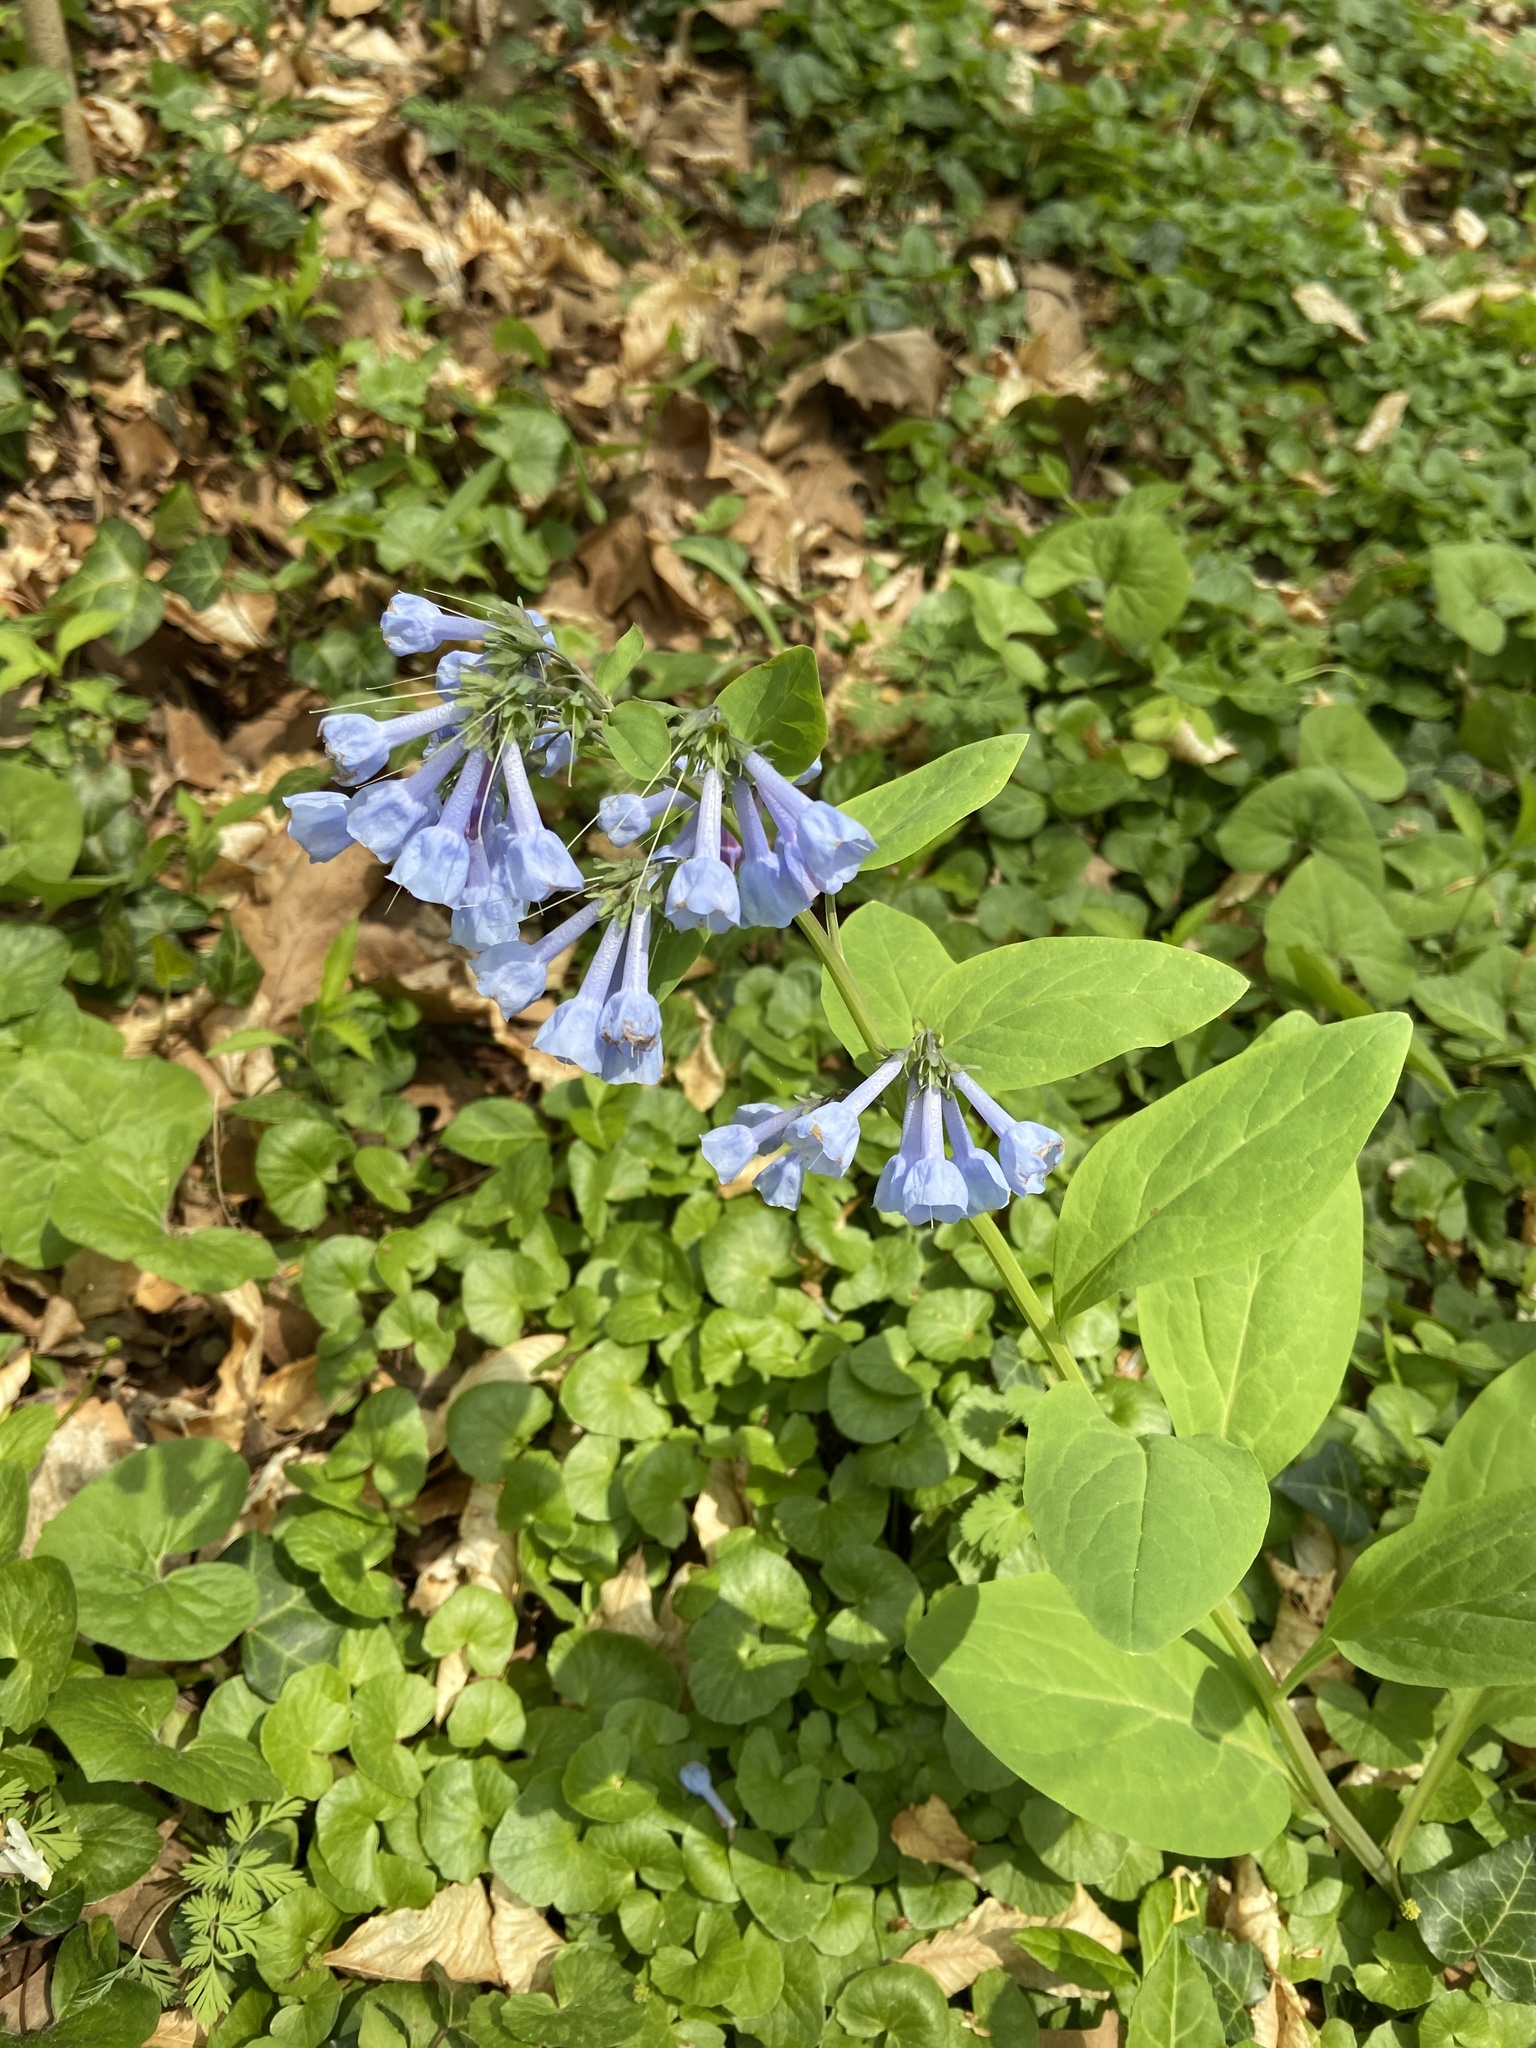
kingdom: Plantae
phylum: Tracheophyta
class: Magnoliopsida
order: Boraginales
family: Boraginaceae
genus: Mertensia
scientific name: Mertensia virginica
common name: Virginia bluebells
